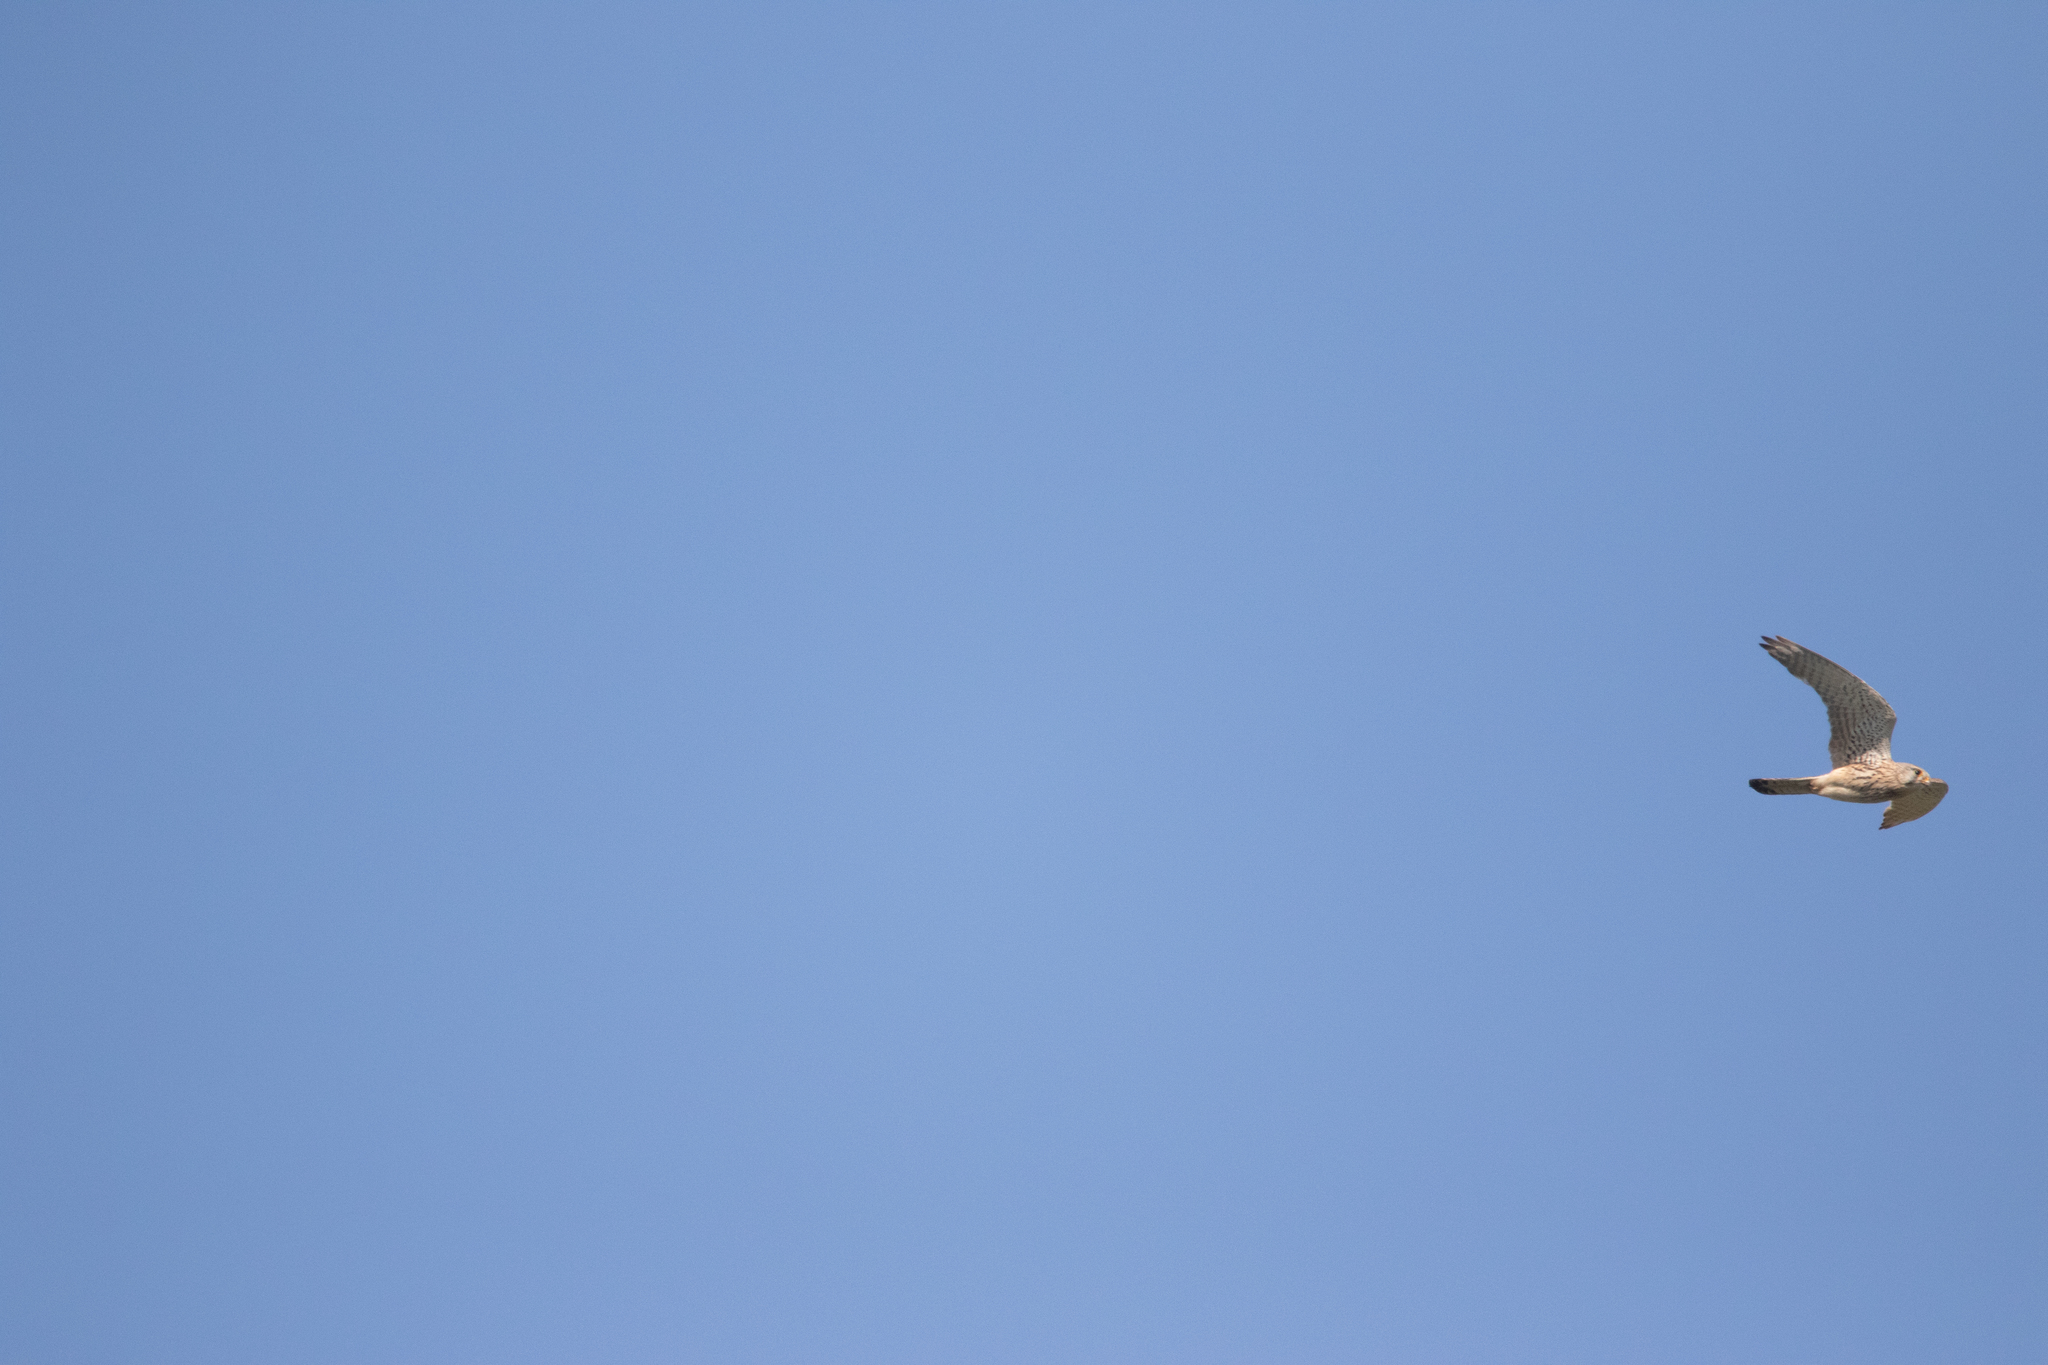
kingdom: Animalia
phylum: Chordata
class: Aves
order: Falconiformes
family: Falconidae
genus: Falco
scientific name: Falco tinnunculus
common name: Common kestrel
